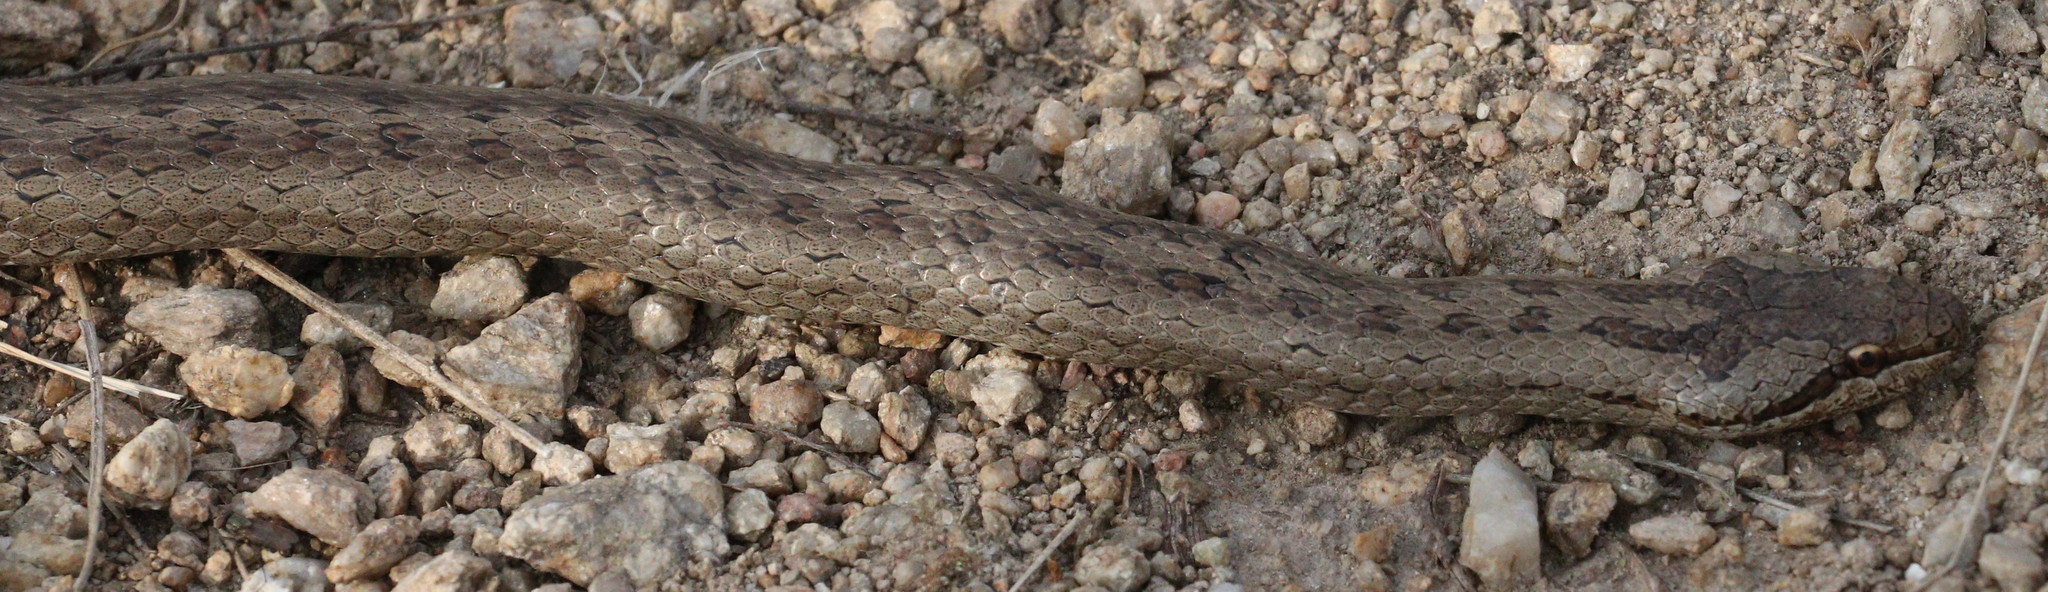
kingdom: Animalia
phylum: Chordata
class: Squamata
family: Colubridae
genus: Coronella
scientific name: Coronella austriaca
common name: Smooth snake
